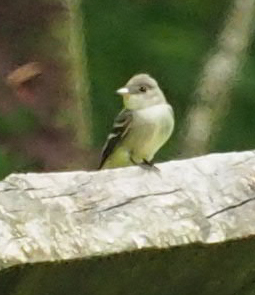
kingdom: Animalia
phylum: Chordata
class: Aves
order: Passeriformes
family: Tyrannidae
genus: Contopus
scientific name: Contopus virens
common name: Eastern wood-pewee
